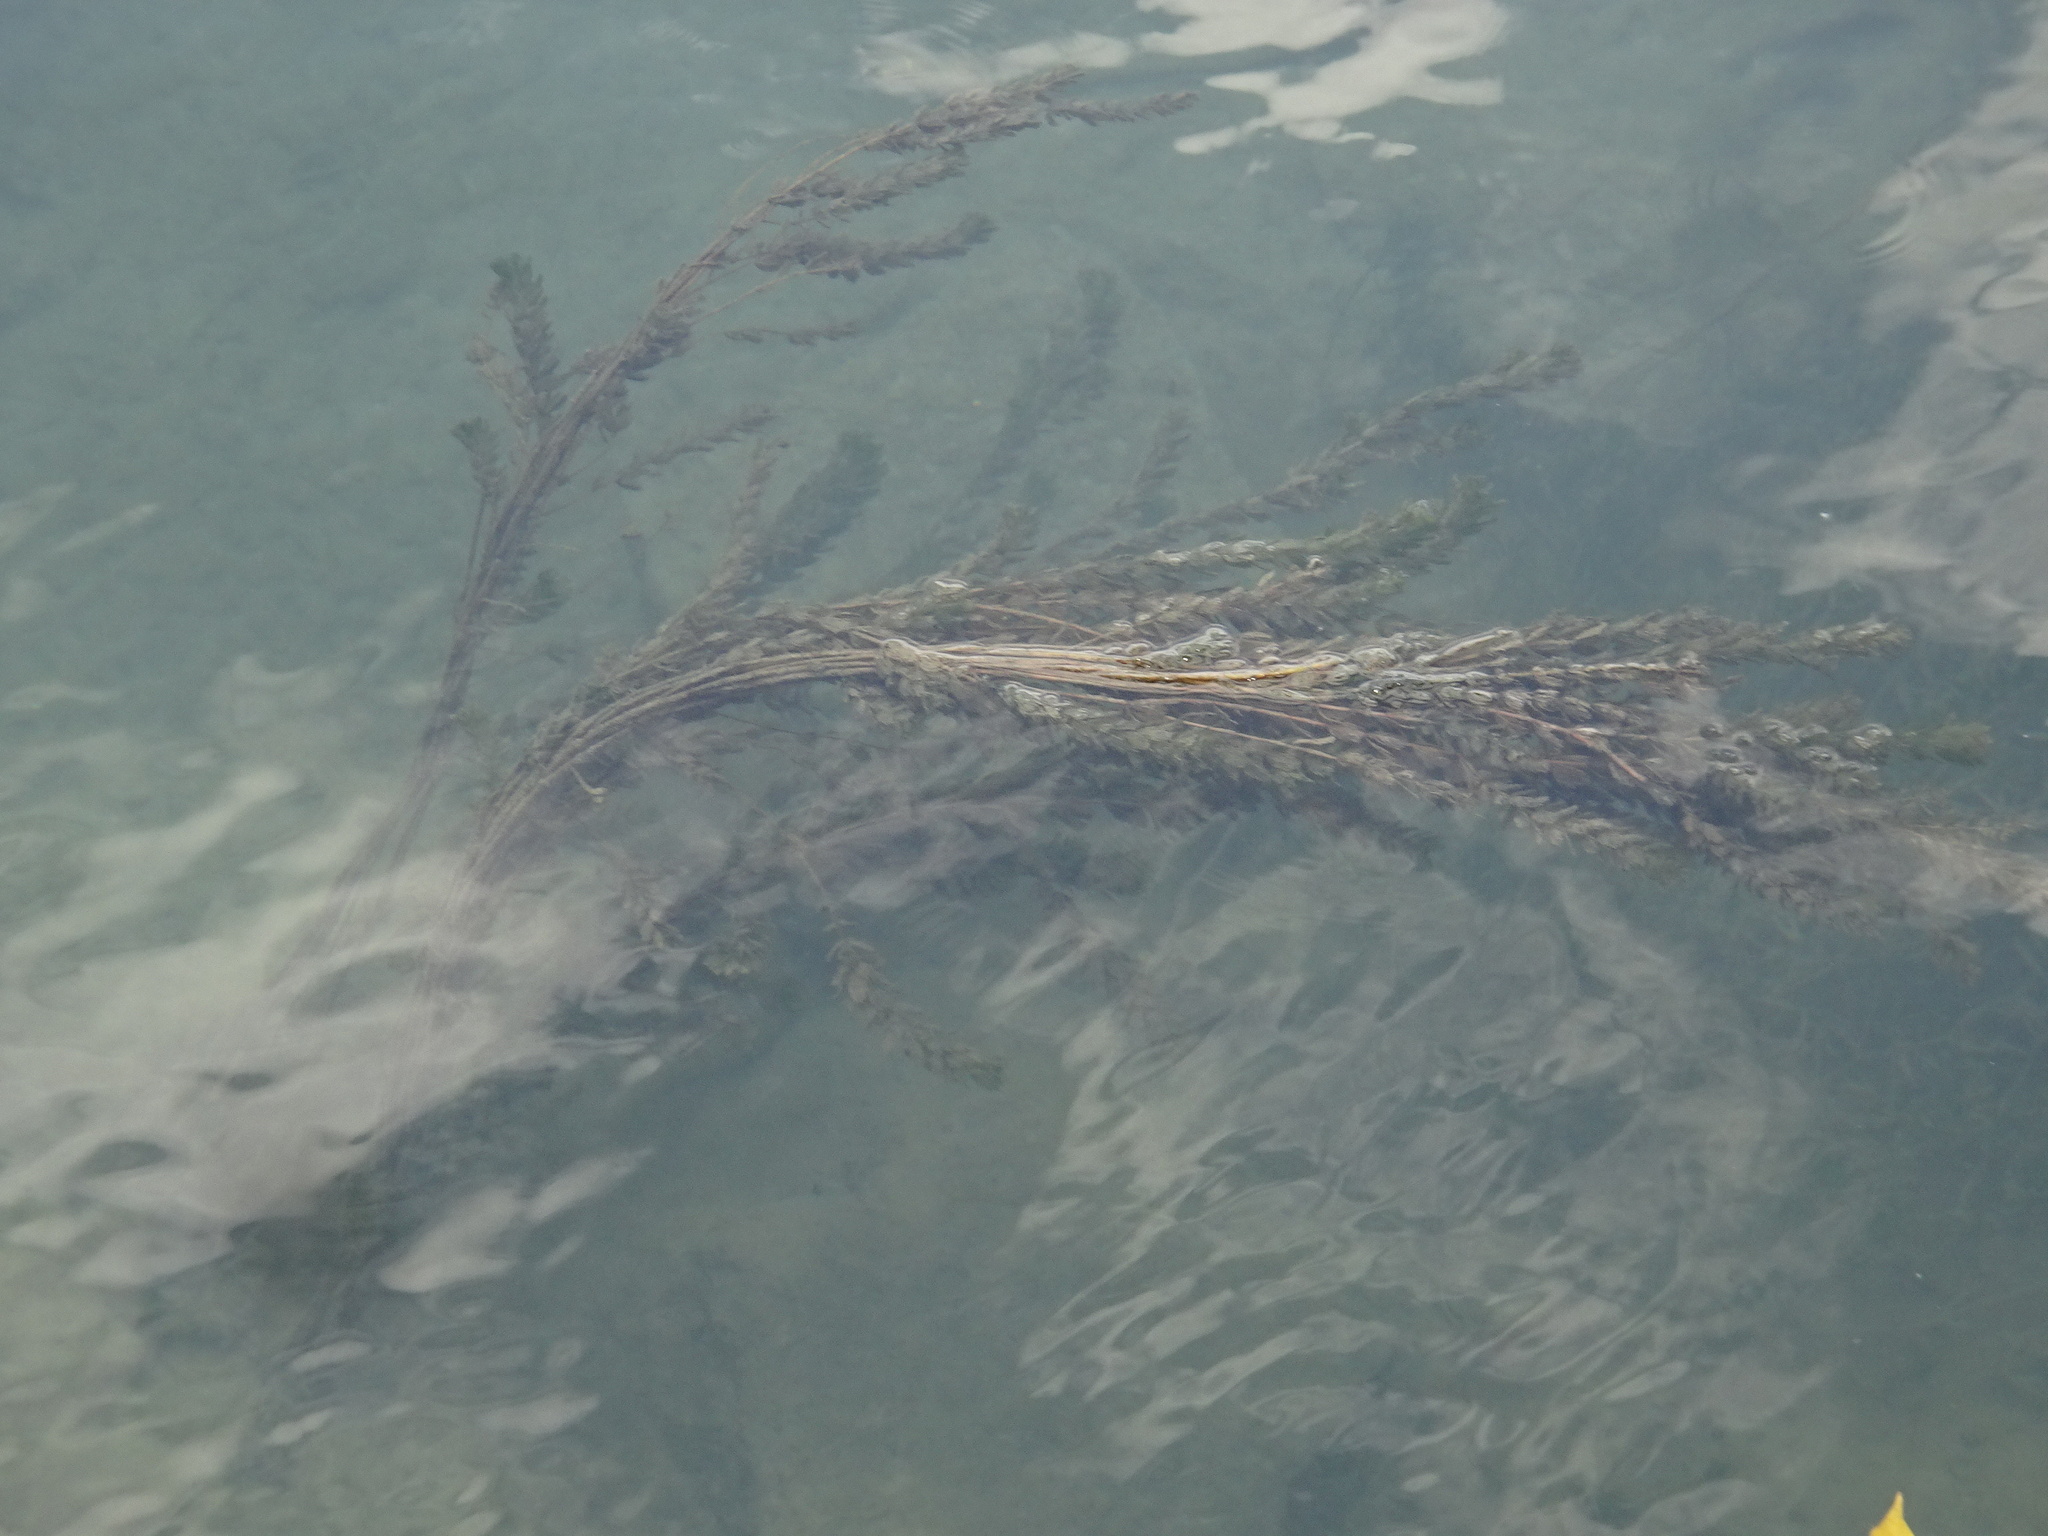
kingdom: Plantae
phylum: Tracheophyta
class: Magnoliopsida
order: Saxifragales
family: Haloragaceae
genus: Myriophyllum
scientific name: Myriophyllum spicatum
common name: Spiked water-milfoil
